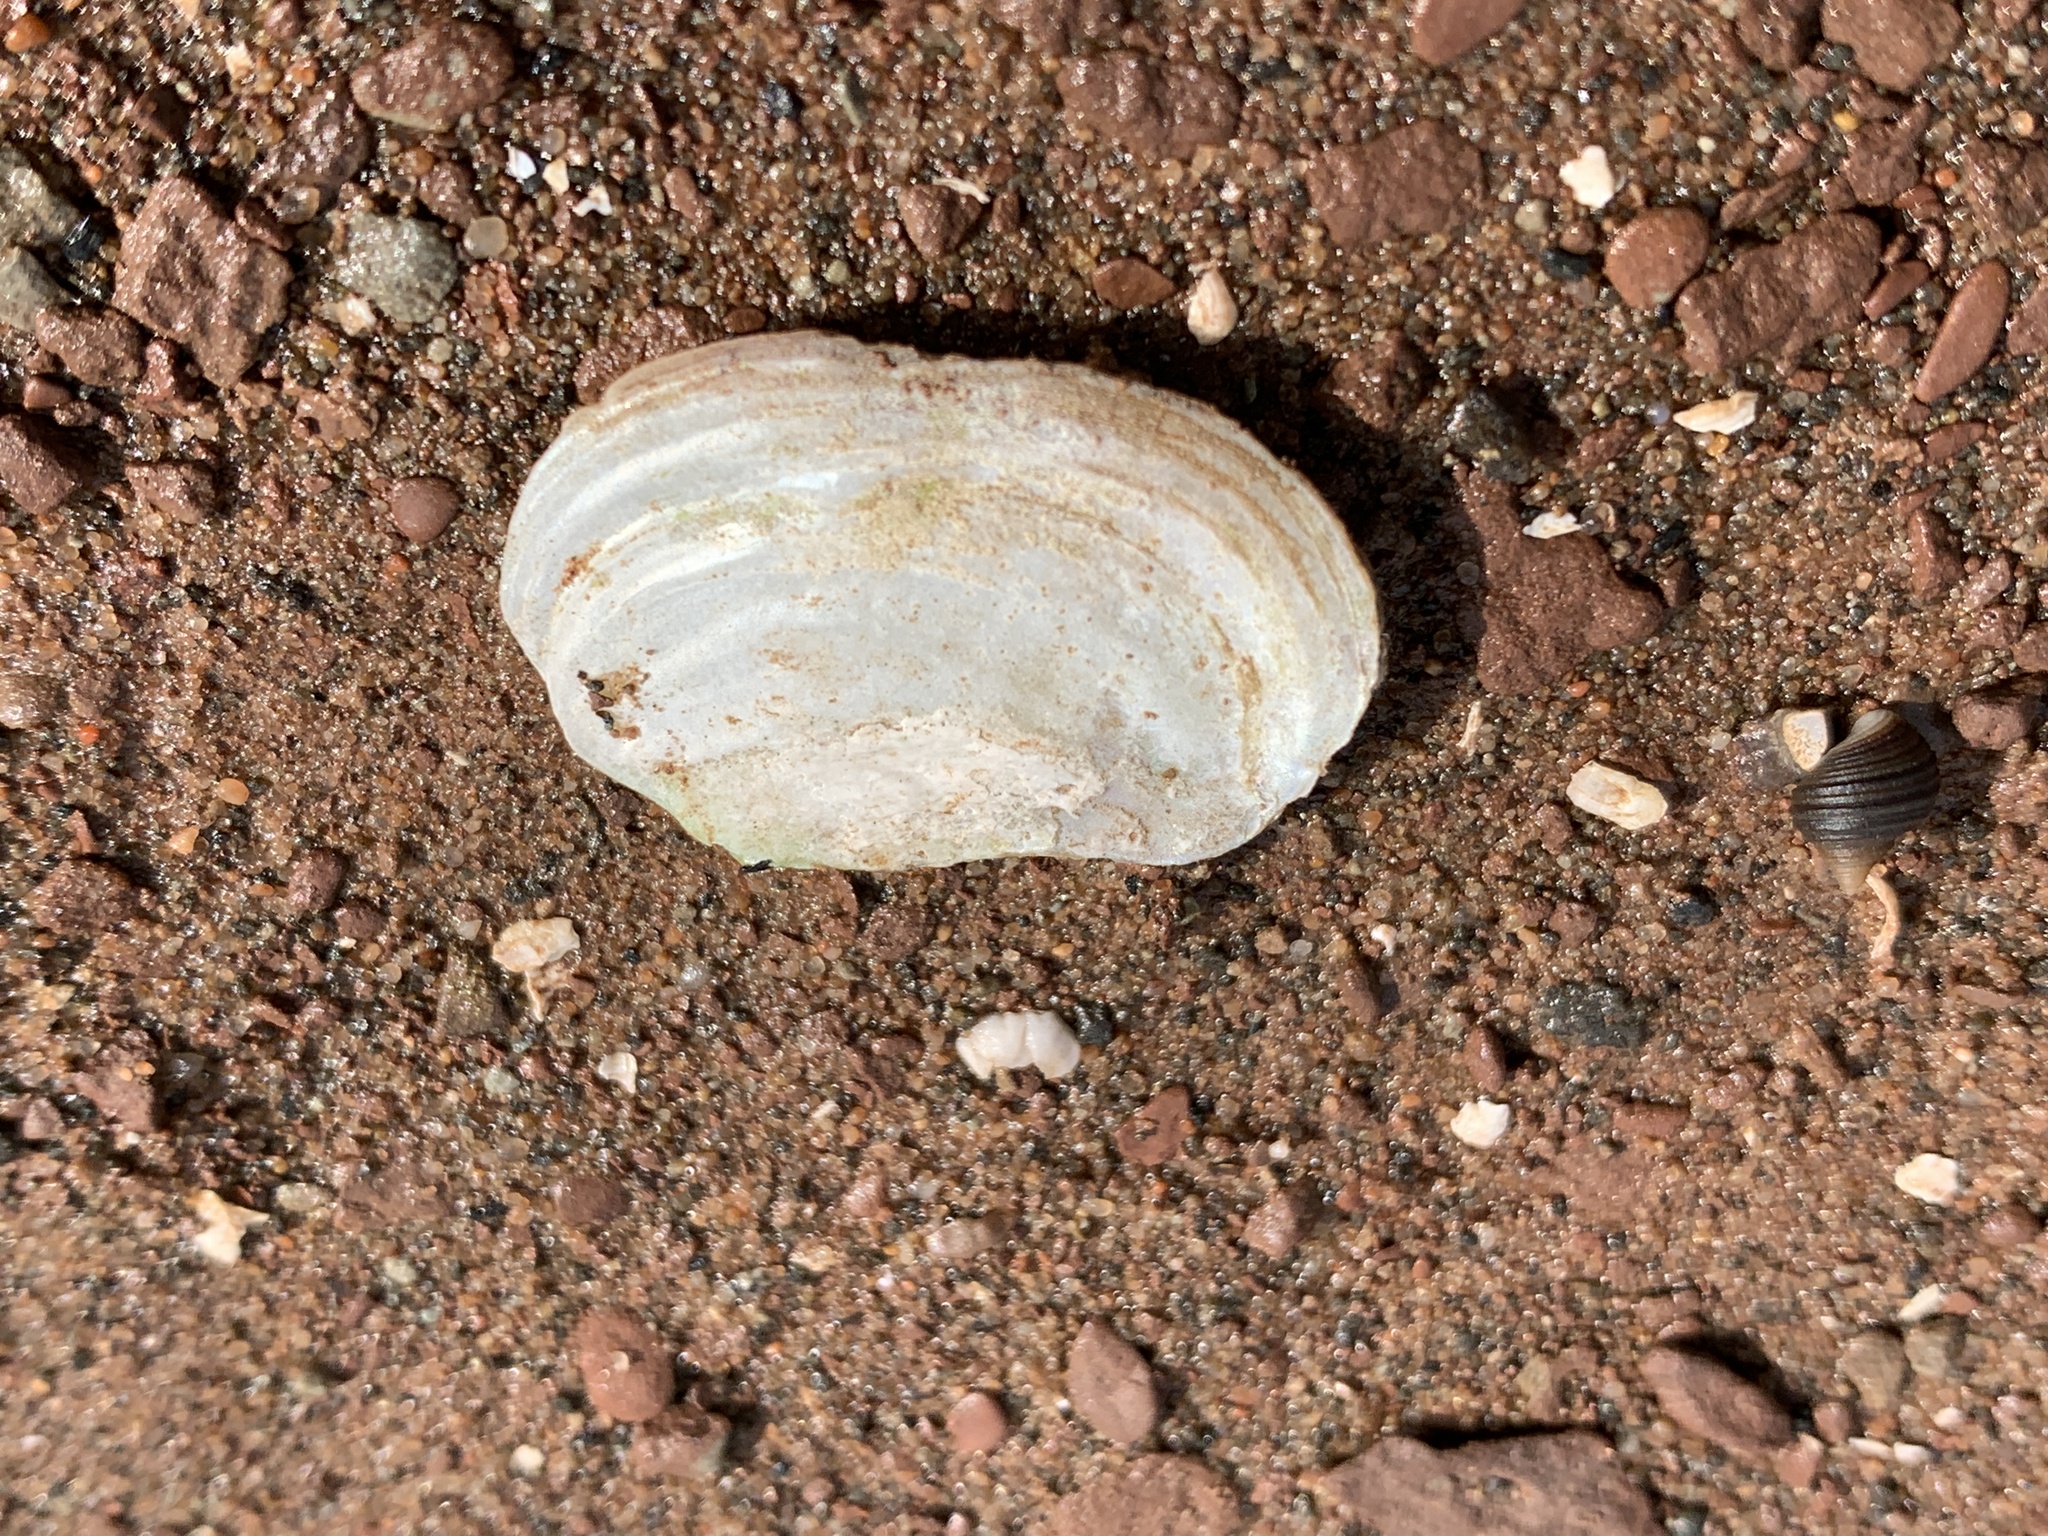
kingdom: Animalia
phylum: Mollusca
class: Bivalvia
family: Pandoridae
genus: Pandora
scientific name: Pandora gouldiana
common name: Rounded pandora
